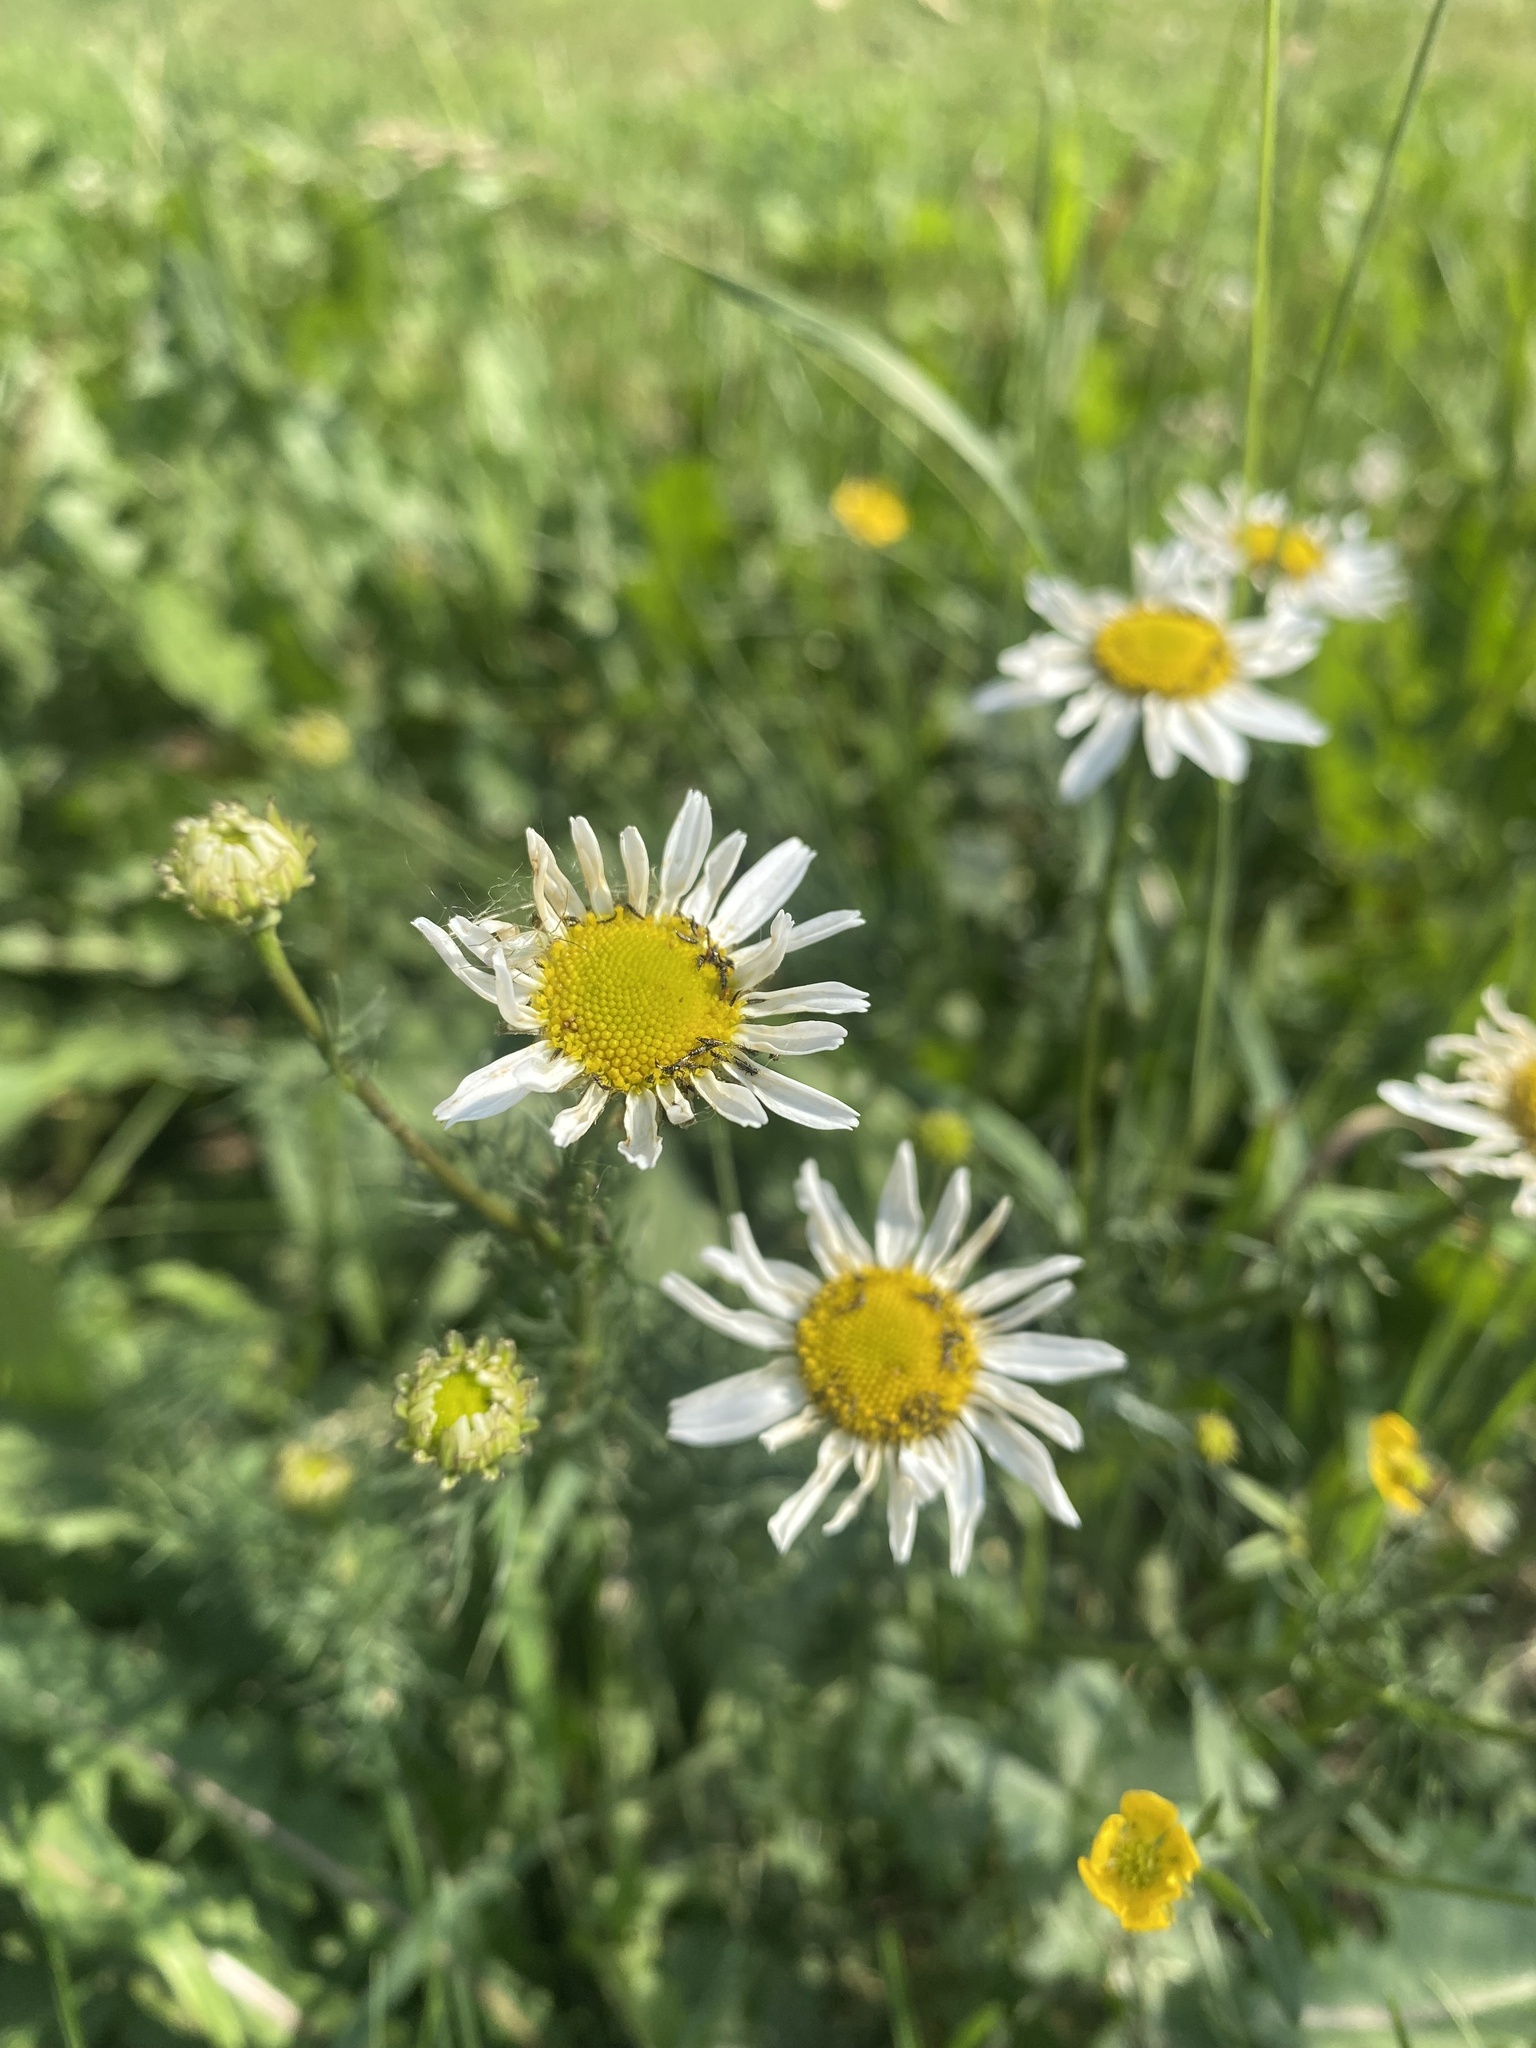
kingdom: Plantae
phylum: Tracheophyta
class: Magnoliopsida
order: Asterales
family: Asteraceae
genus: Tripleurospermum
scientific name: Tripleurospermum inodorum
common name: Scentless mayweed
